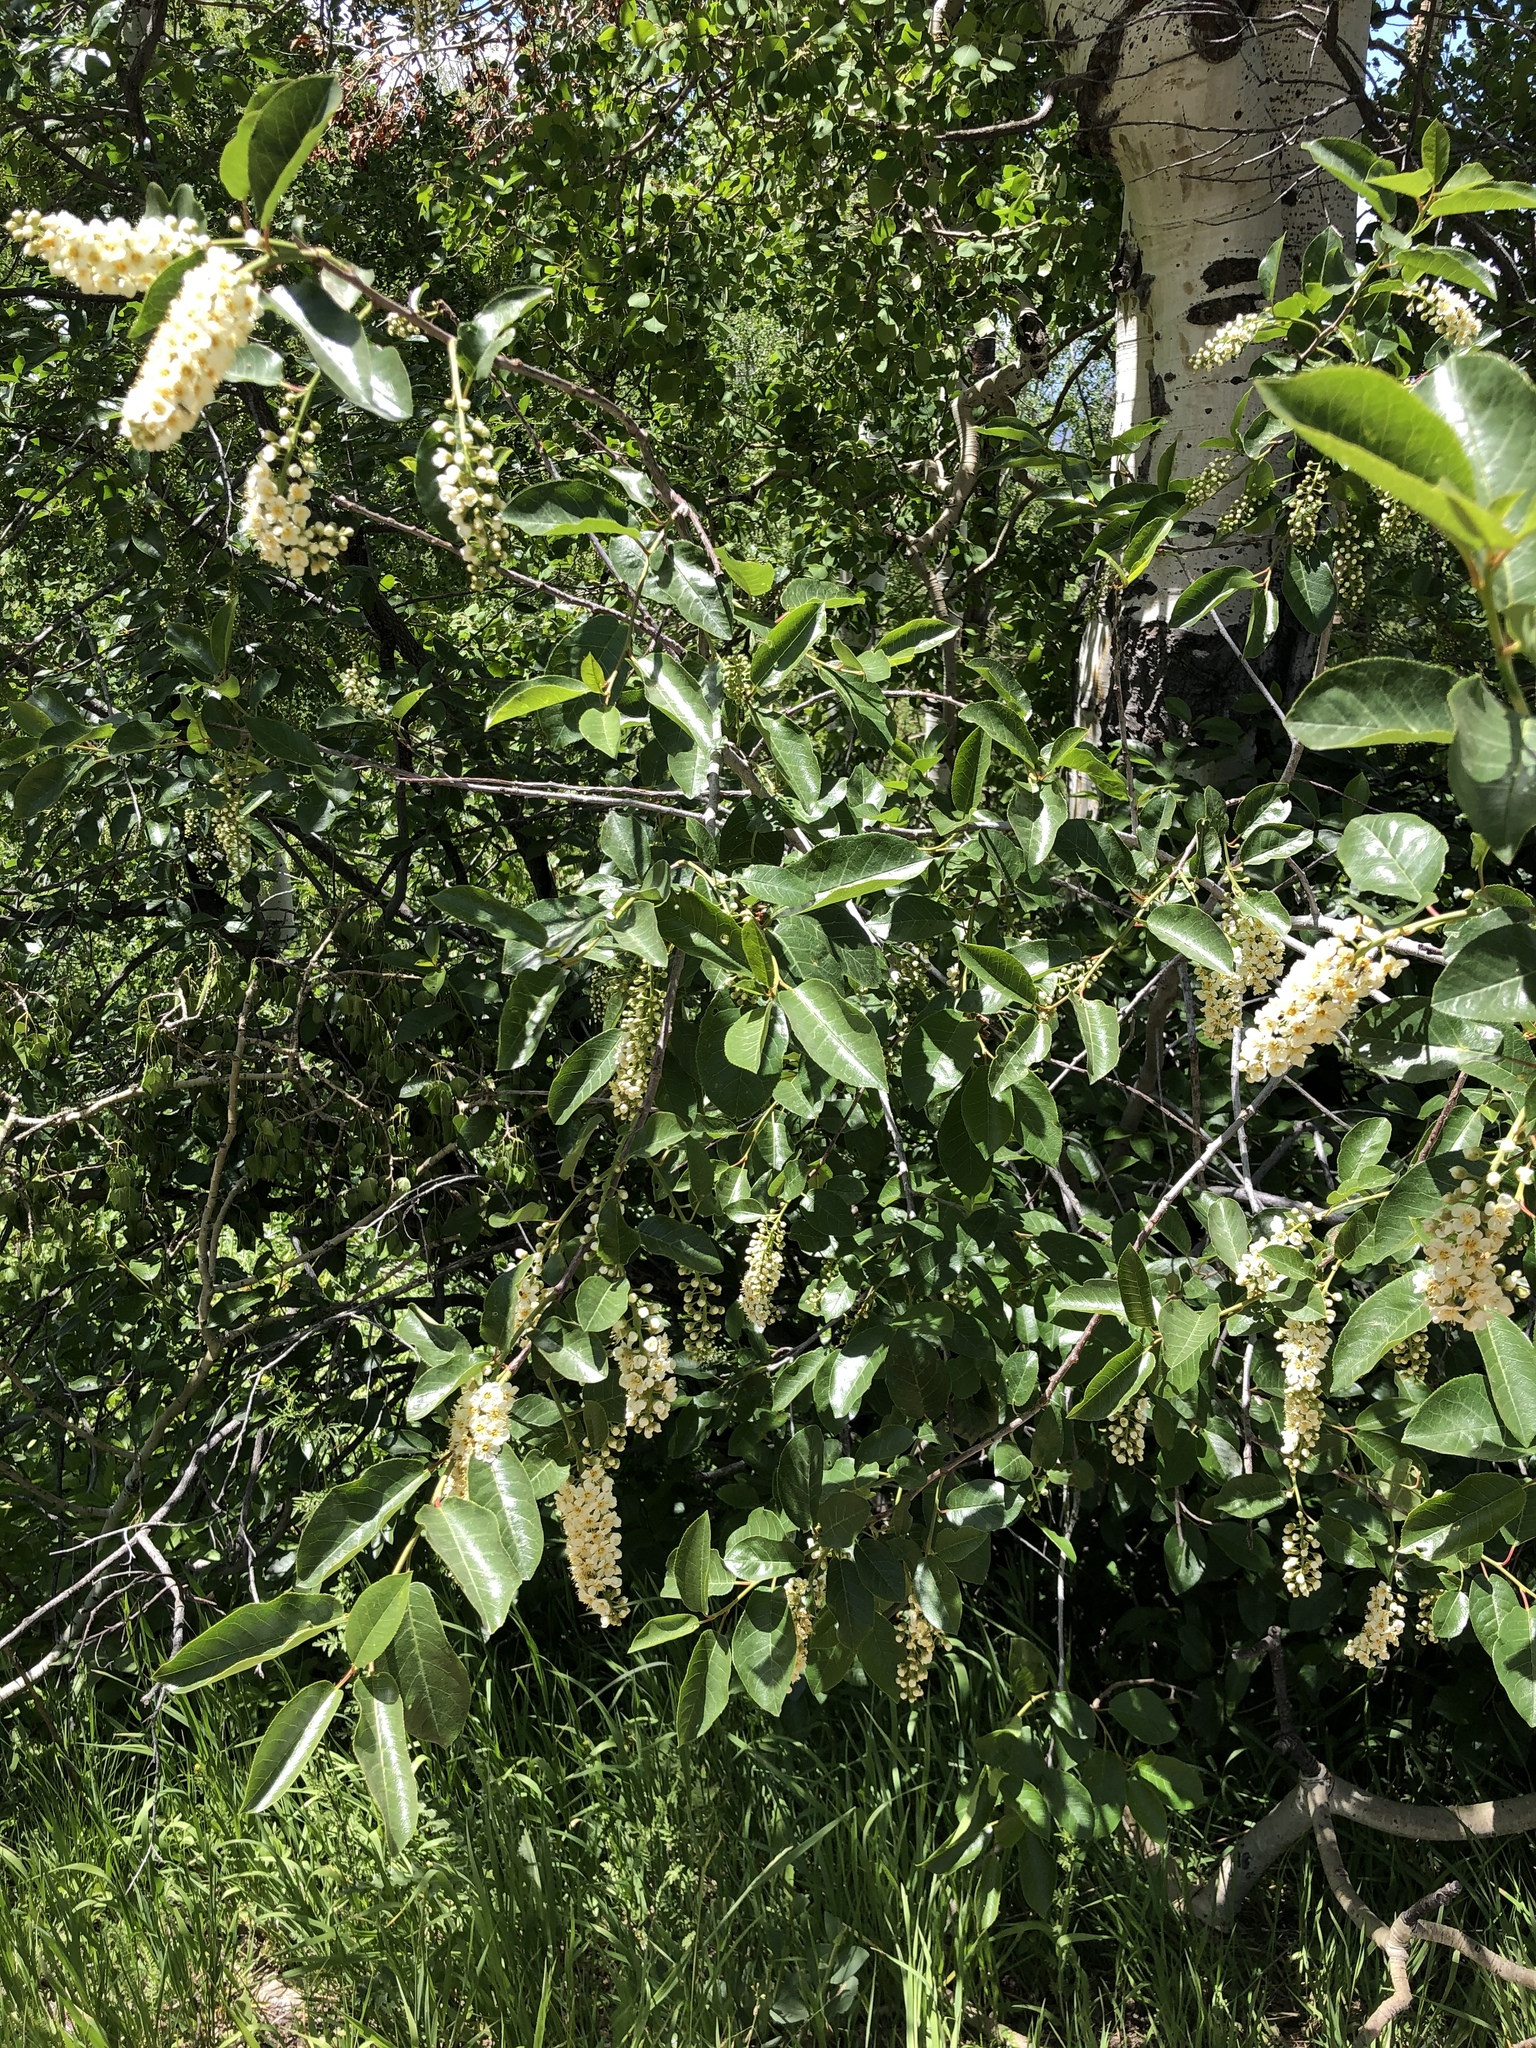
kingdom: Plantae
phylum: Tracheophyta
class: Magnoliopsida
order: Rosales
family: Rosaceae
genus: Prunus
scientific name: Prunus virginiana
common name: Chokecherry
